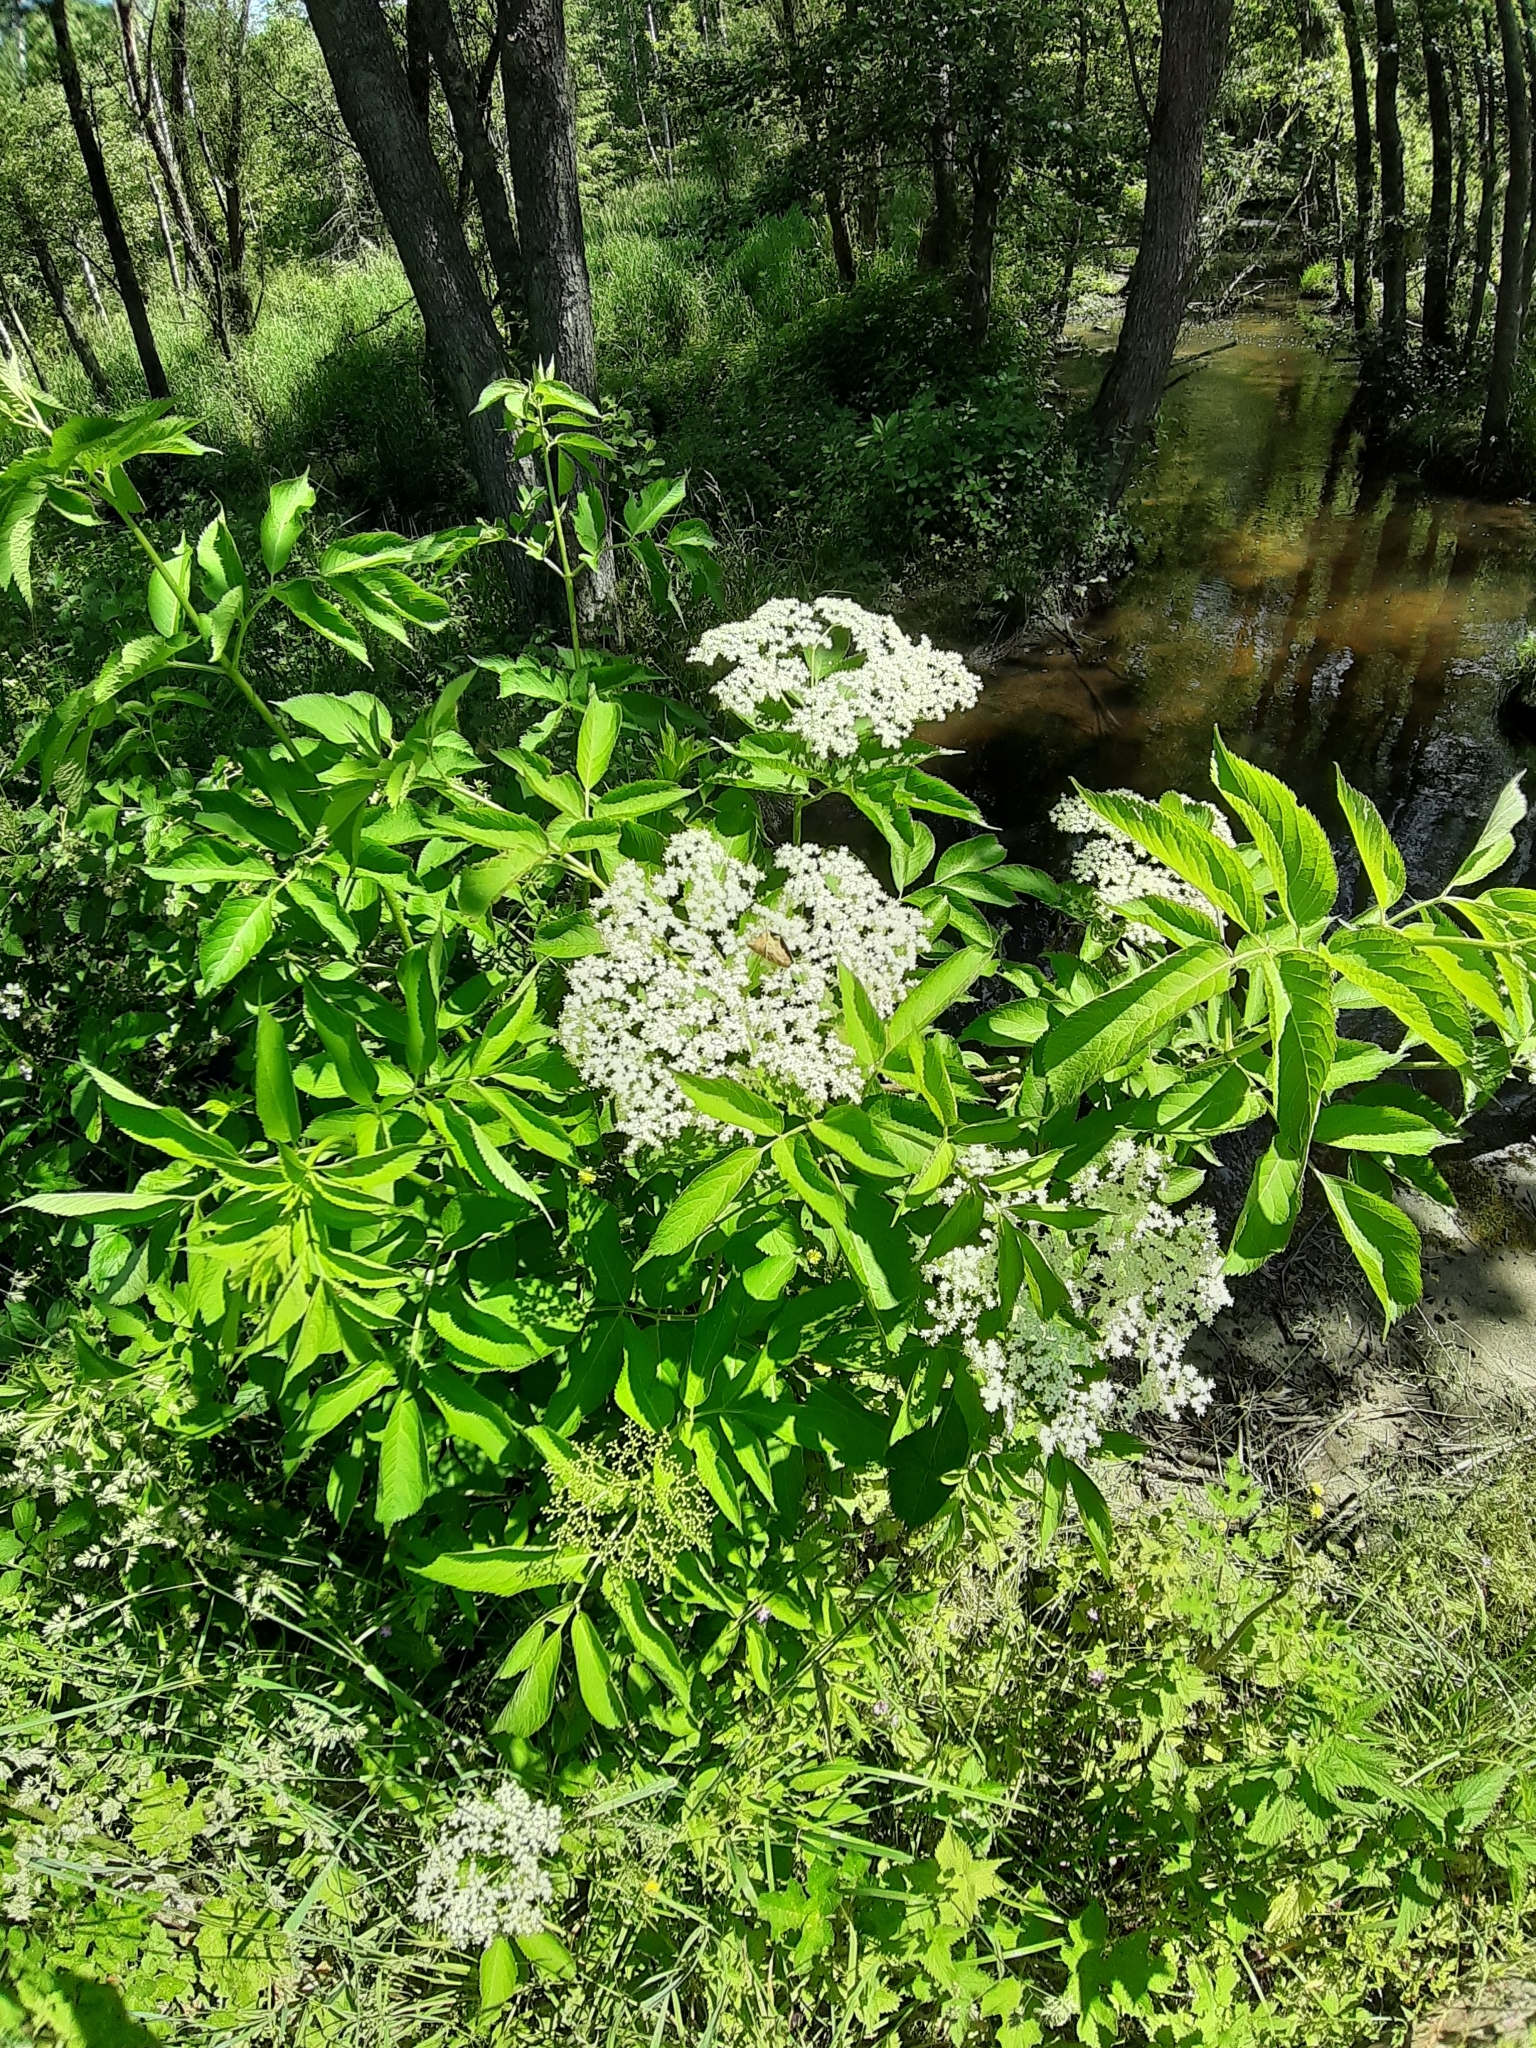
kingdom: Plantae
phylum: Tracheophyta
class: Magnoliopsida
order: Dipsacales
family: Viburnaceae
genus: Sambucus
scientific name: Sambucus nigra
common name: Elder
